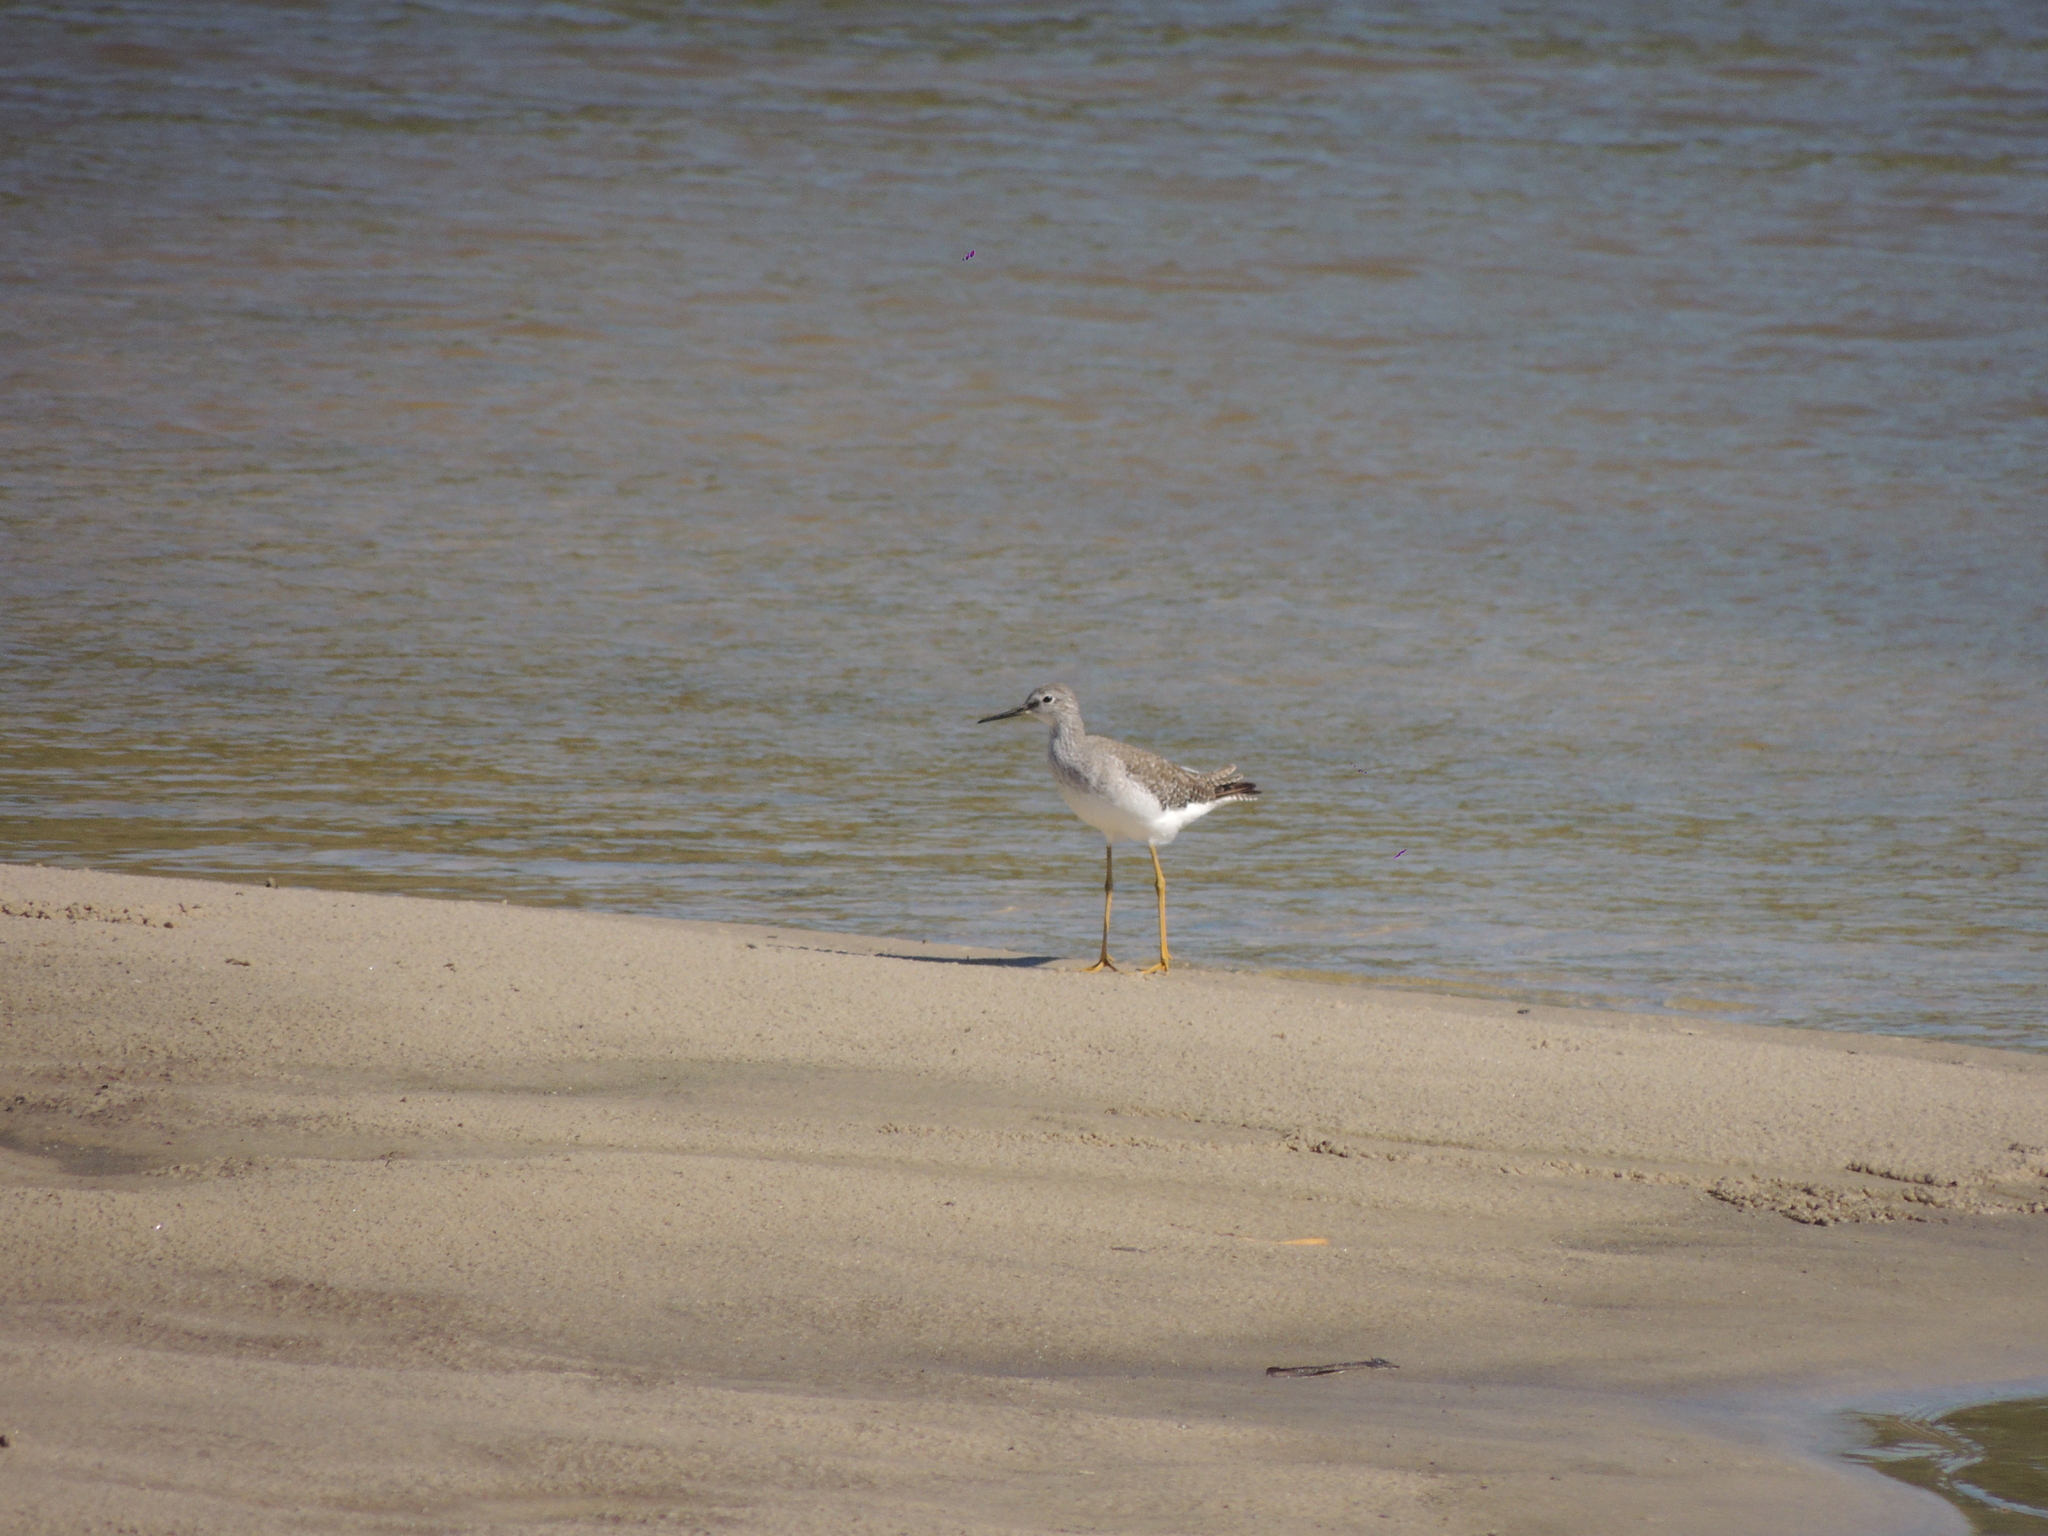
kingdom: Animalia
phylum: Chordata
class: Aves
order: Charadriiformes
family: Scolopacidae
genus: Tringa
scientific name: Tringa flavipes
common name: Lesser yellowlegs
